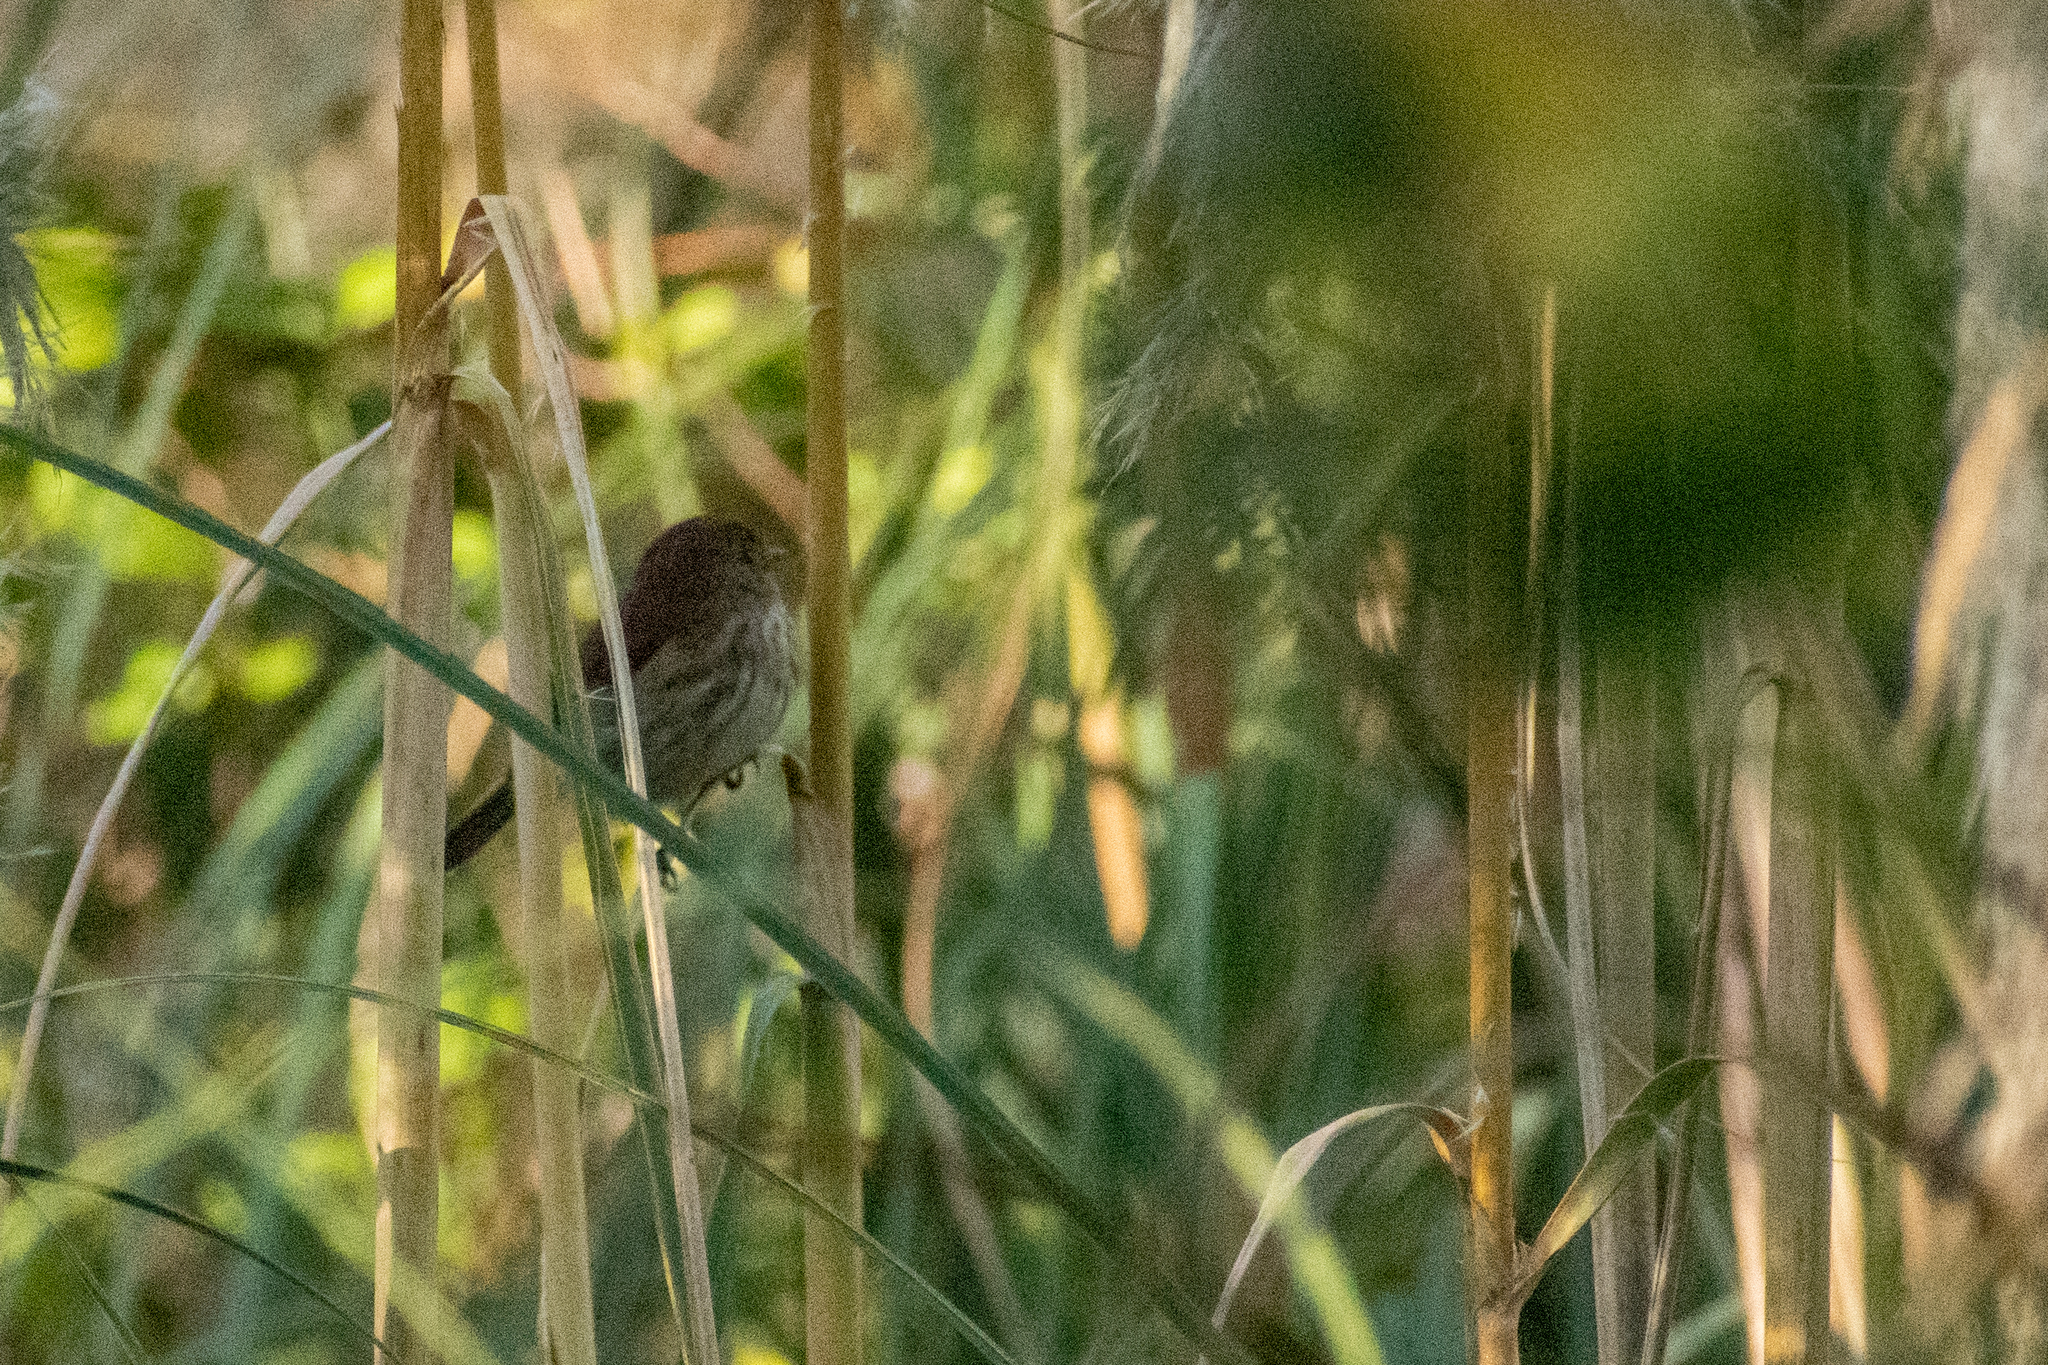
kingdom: Animalia
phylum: Chordata
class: Aves
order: Passeriformes
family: Tyrannidae
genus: Myiophobus
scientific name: Myiophobus fasciatus
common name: Bran-colored flycatcher
